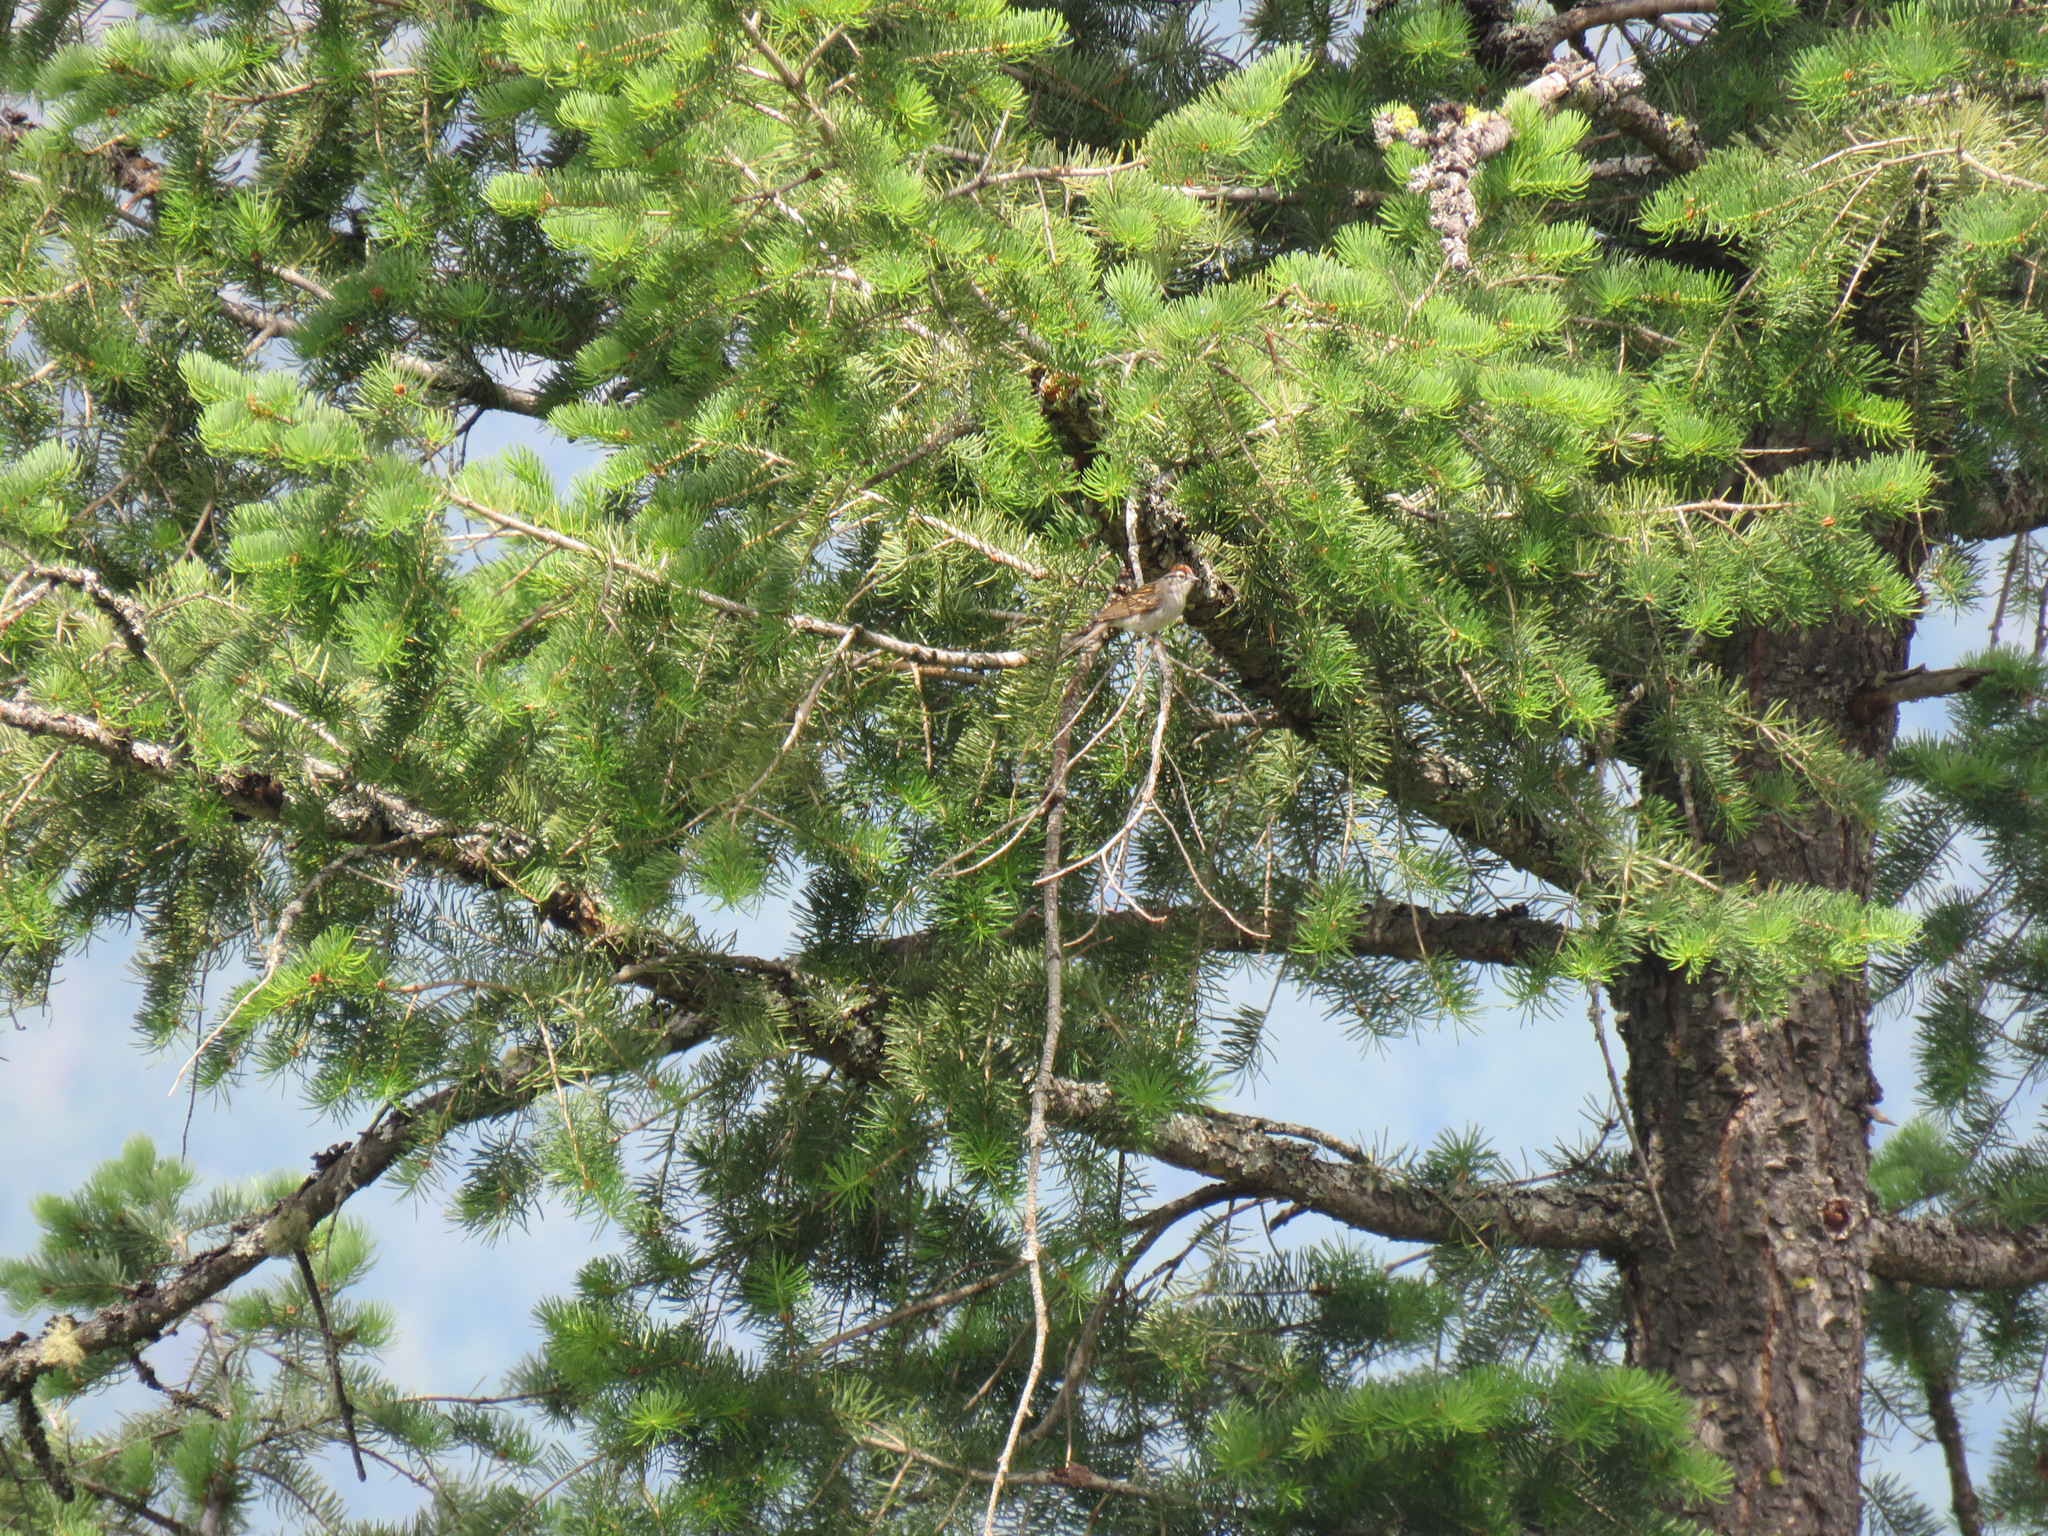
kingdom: Animalia
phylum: Chordata
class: Aves
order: Passeriformes
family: Passerellidae
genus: Spizella
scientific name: Spizella passerina
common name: Chipping sparrow
